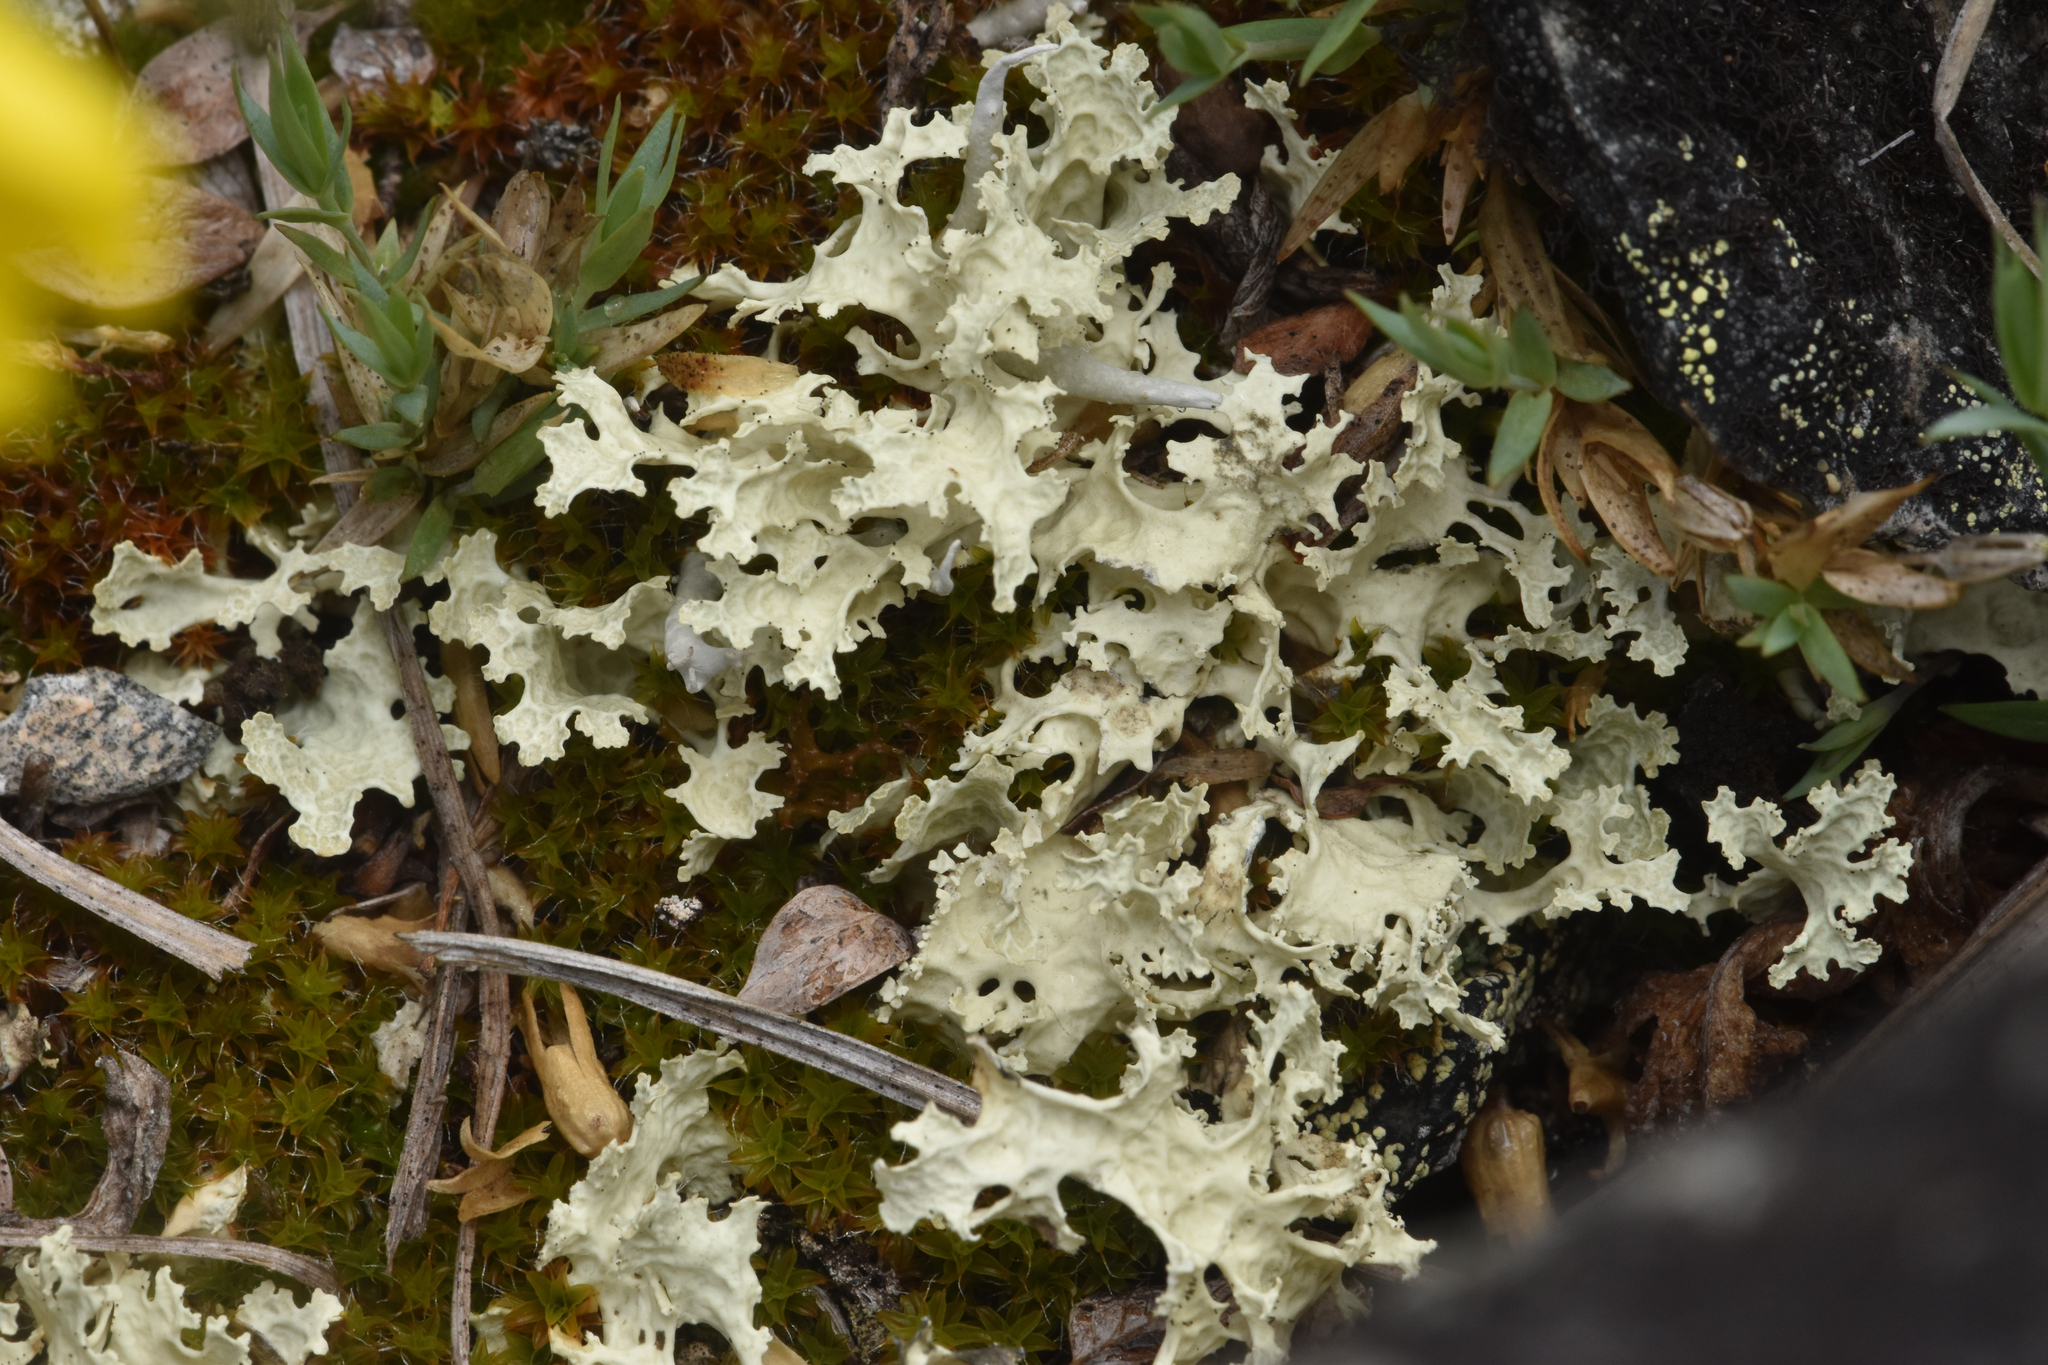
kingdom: Fungi
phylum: Ascomycota
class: Lecanoromycetes
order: Lecanorales
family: Parmeliaceae
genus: Nephromopsis
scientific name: Nephromopsis nivalis
